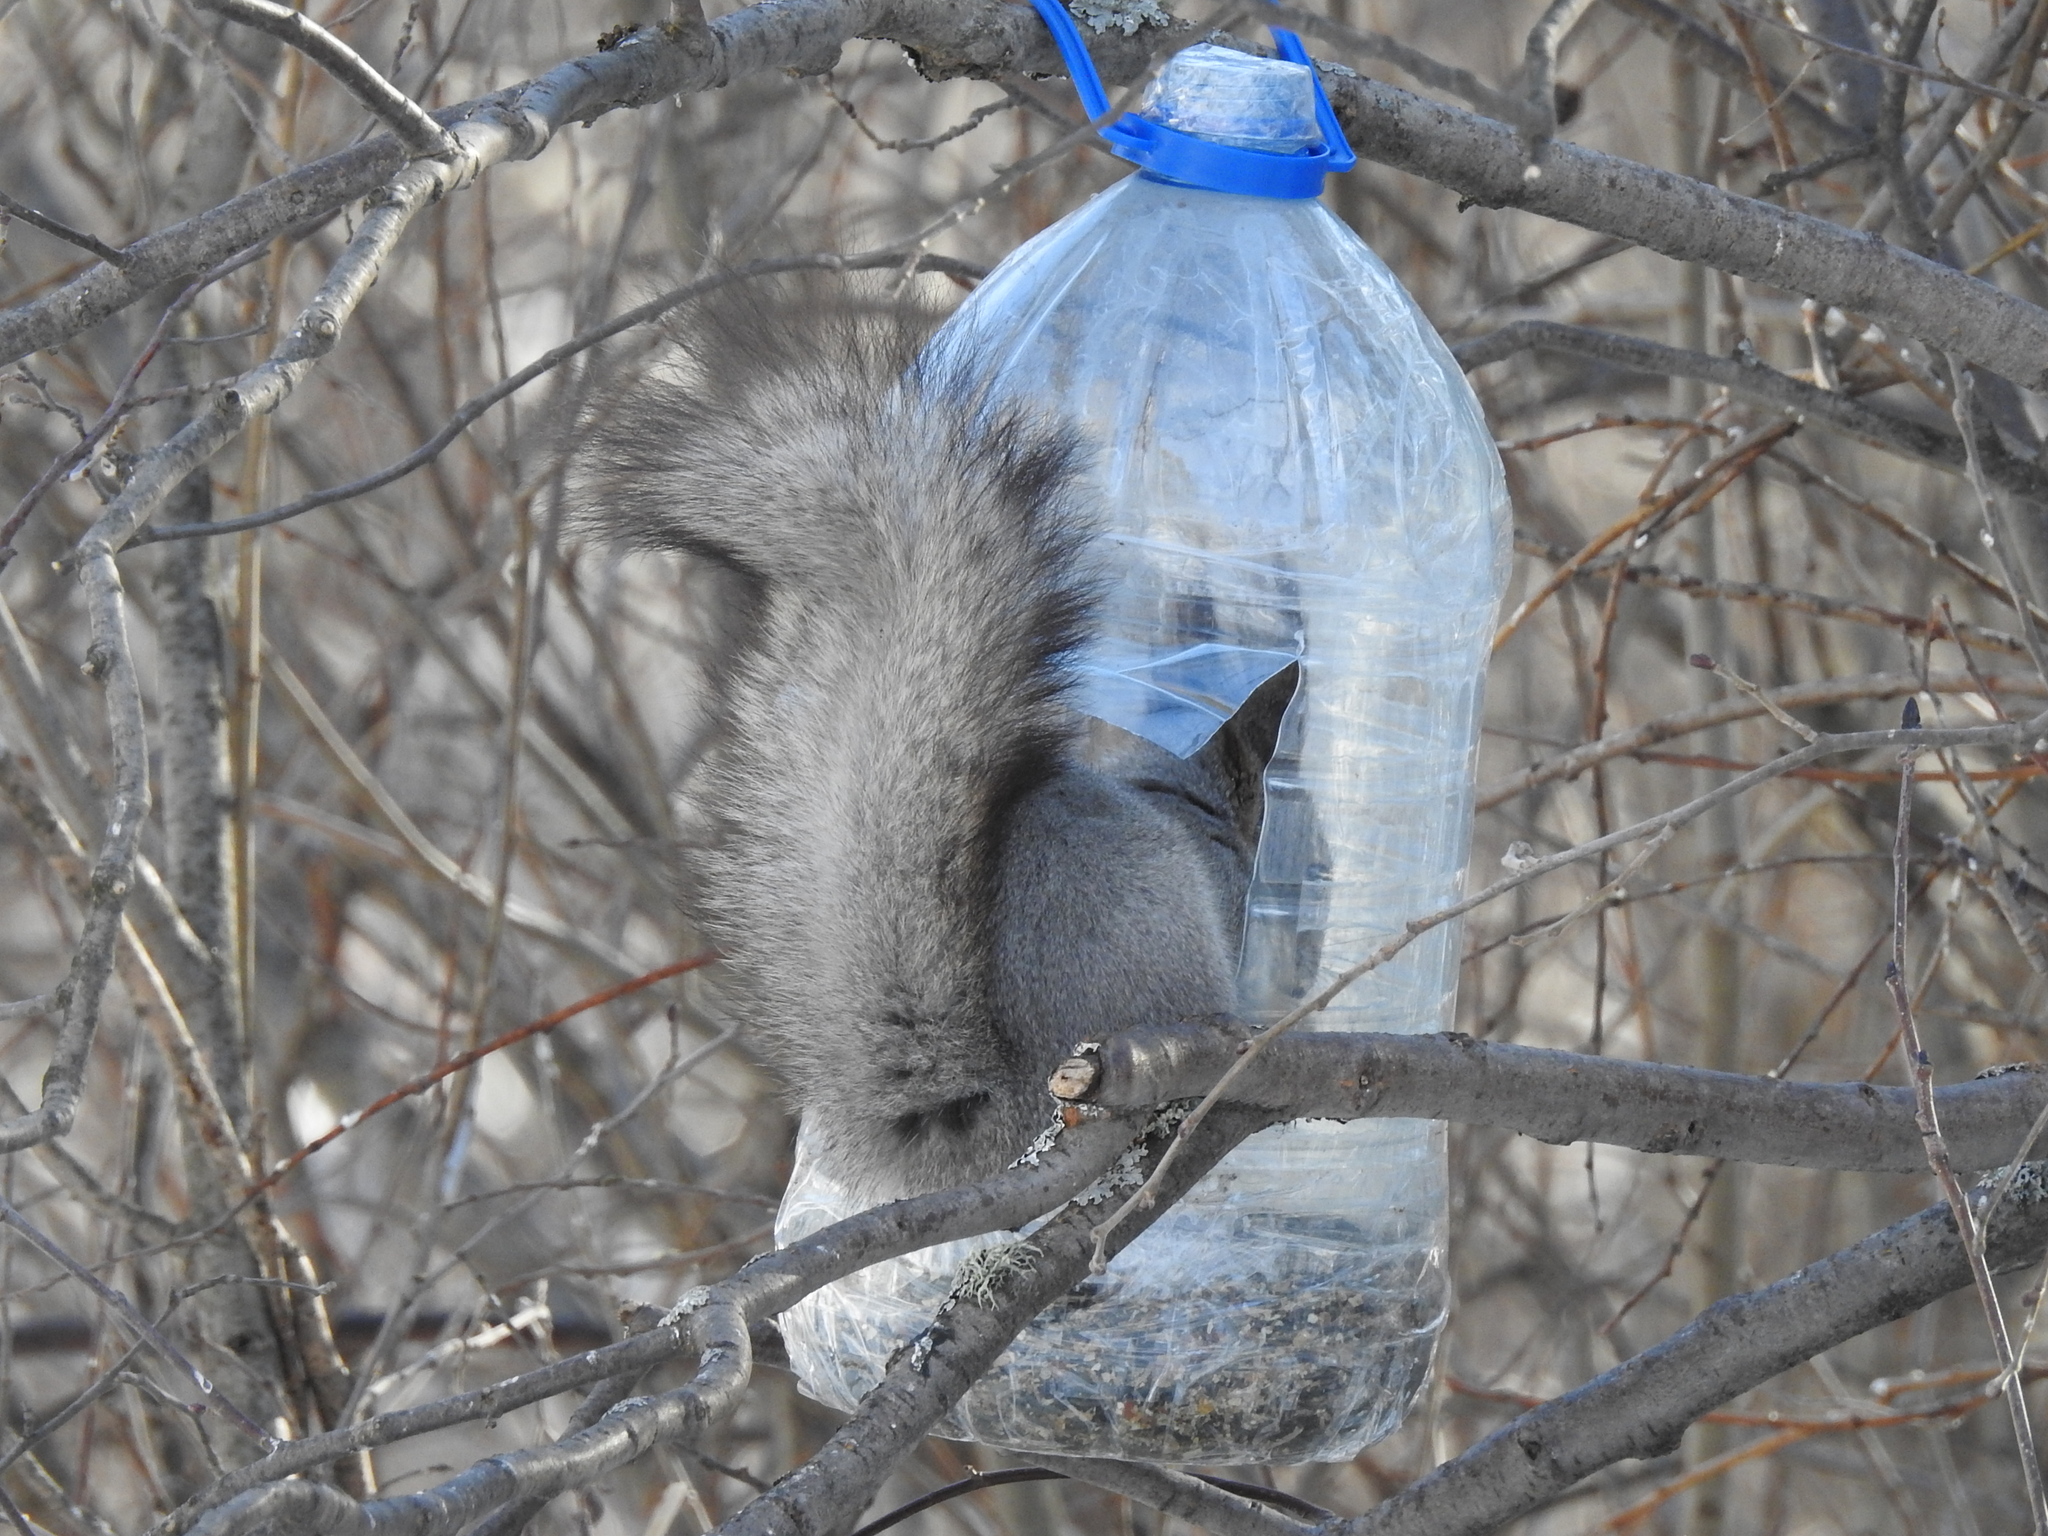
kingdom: Animalia
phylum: Chordata
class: Mammalia
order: Rodentia
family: Sciuridae
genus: Sciurus
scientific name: Sciurus vulgaris
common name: Eurasian red squirrel
